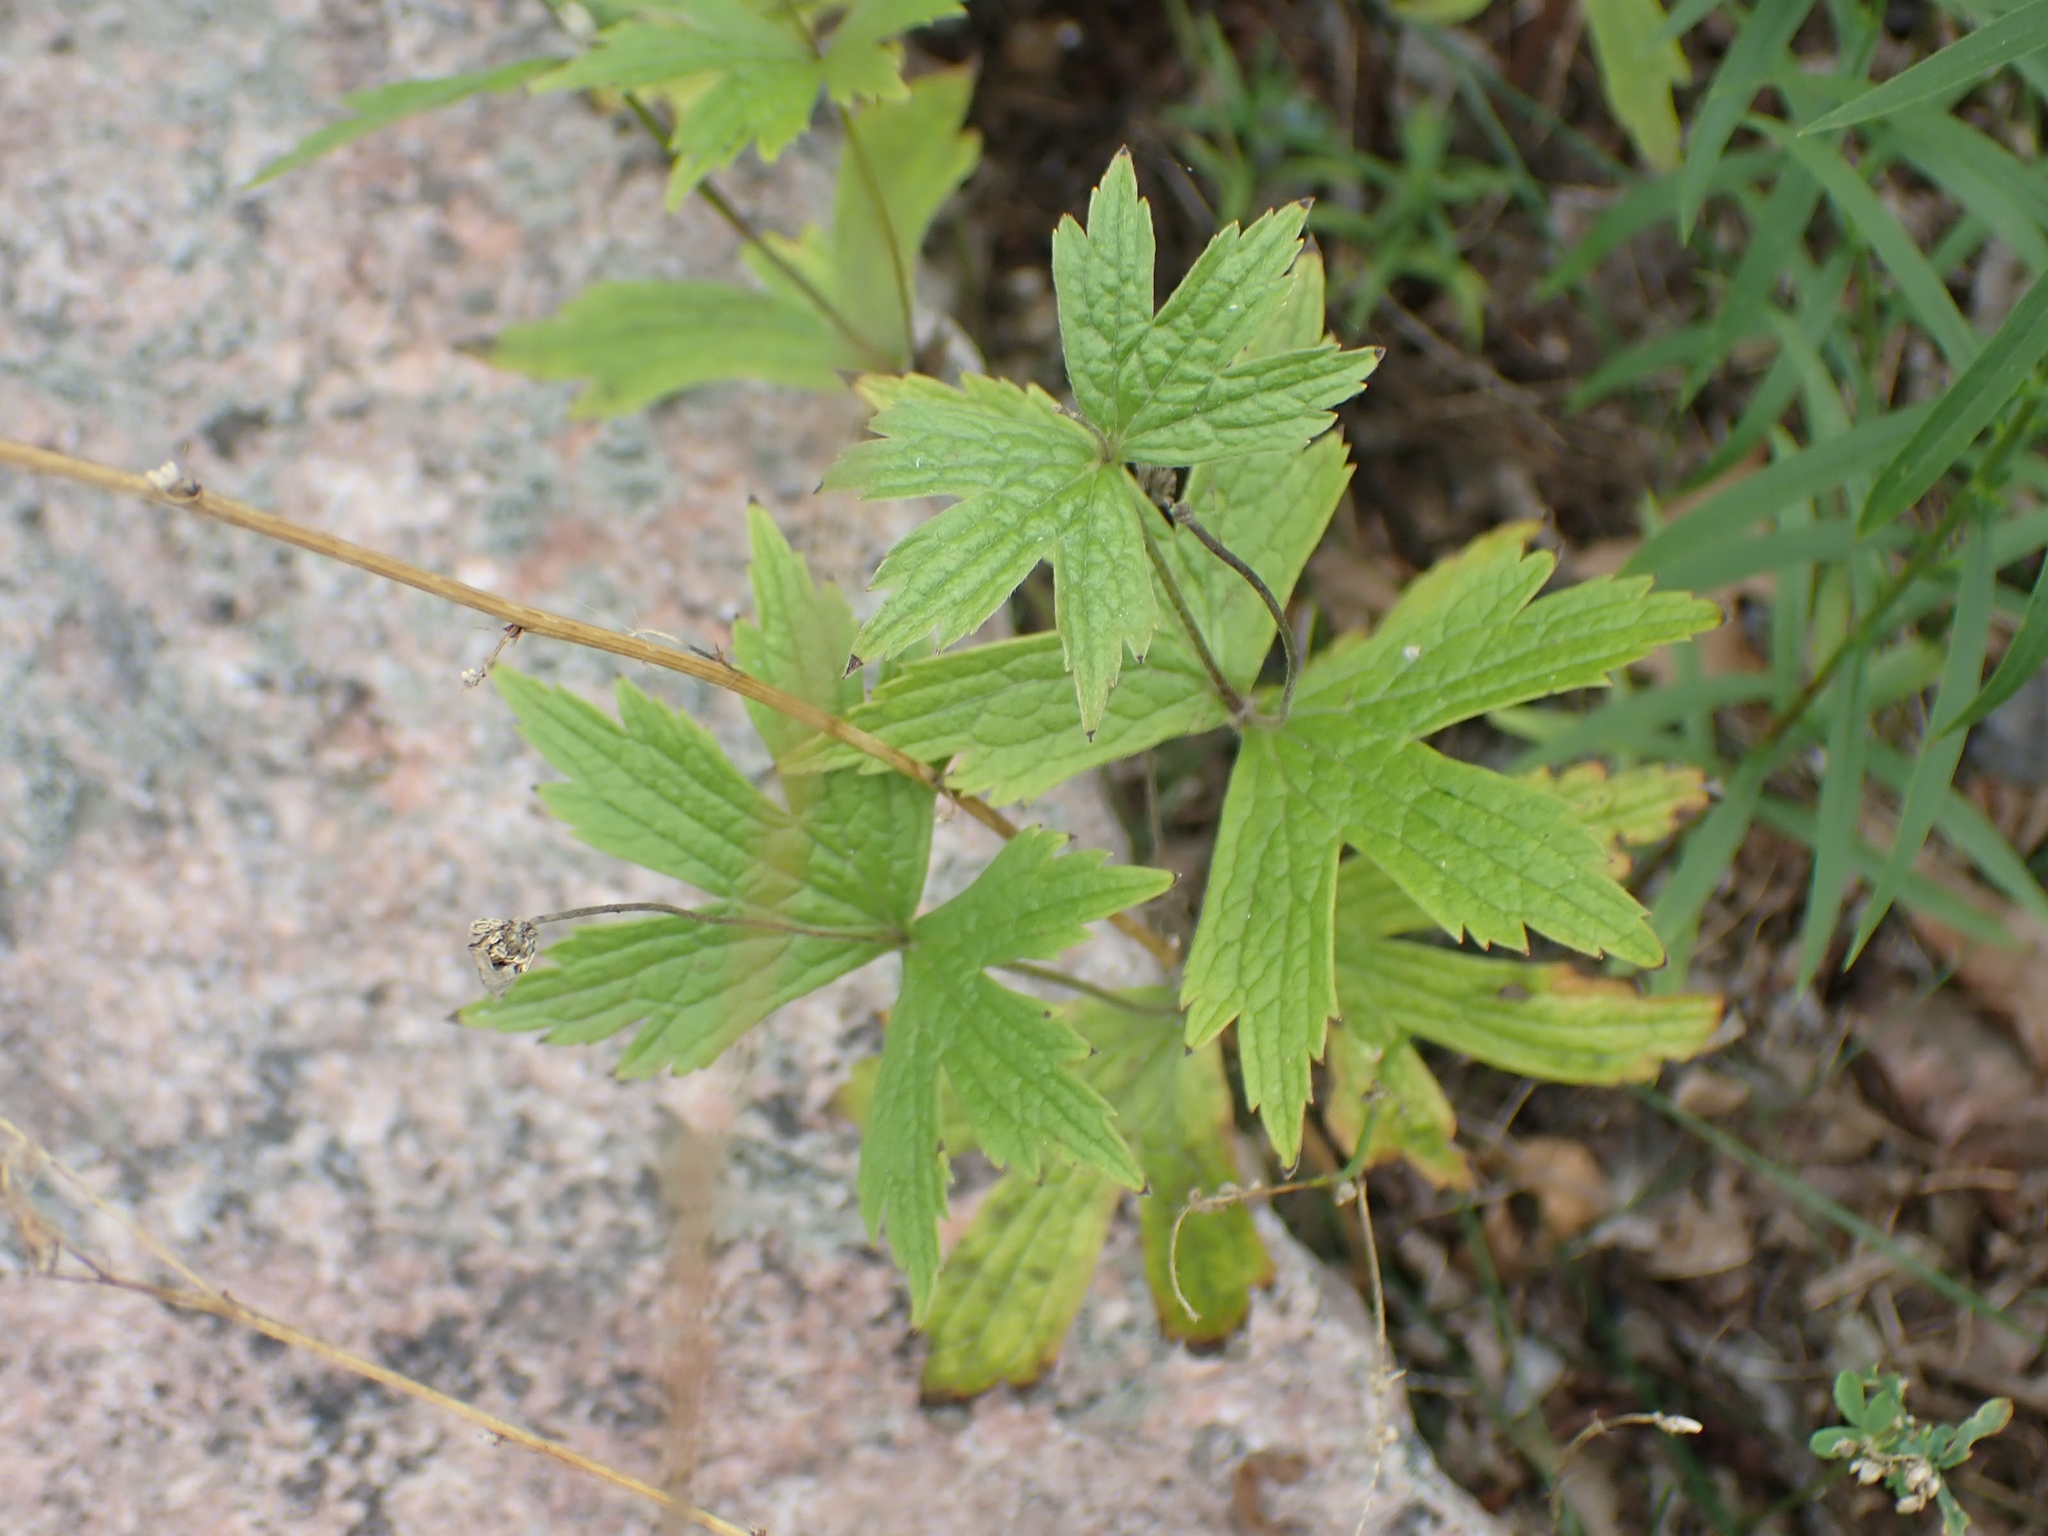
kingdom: Plantae
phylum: Tracheophyta
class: Magnoliopsida
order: Ranunculales
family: Ranunculaceae
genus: Anemonastrum
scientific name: Anemonastrum canadense
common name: Canada anemone
